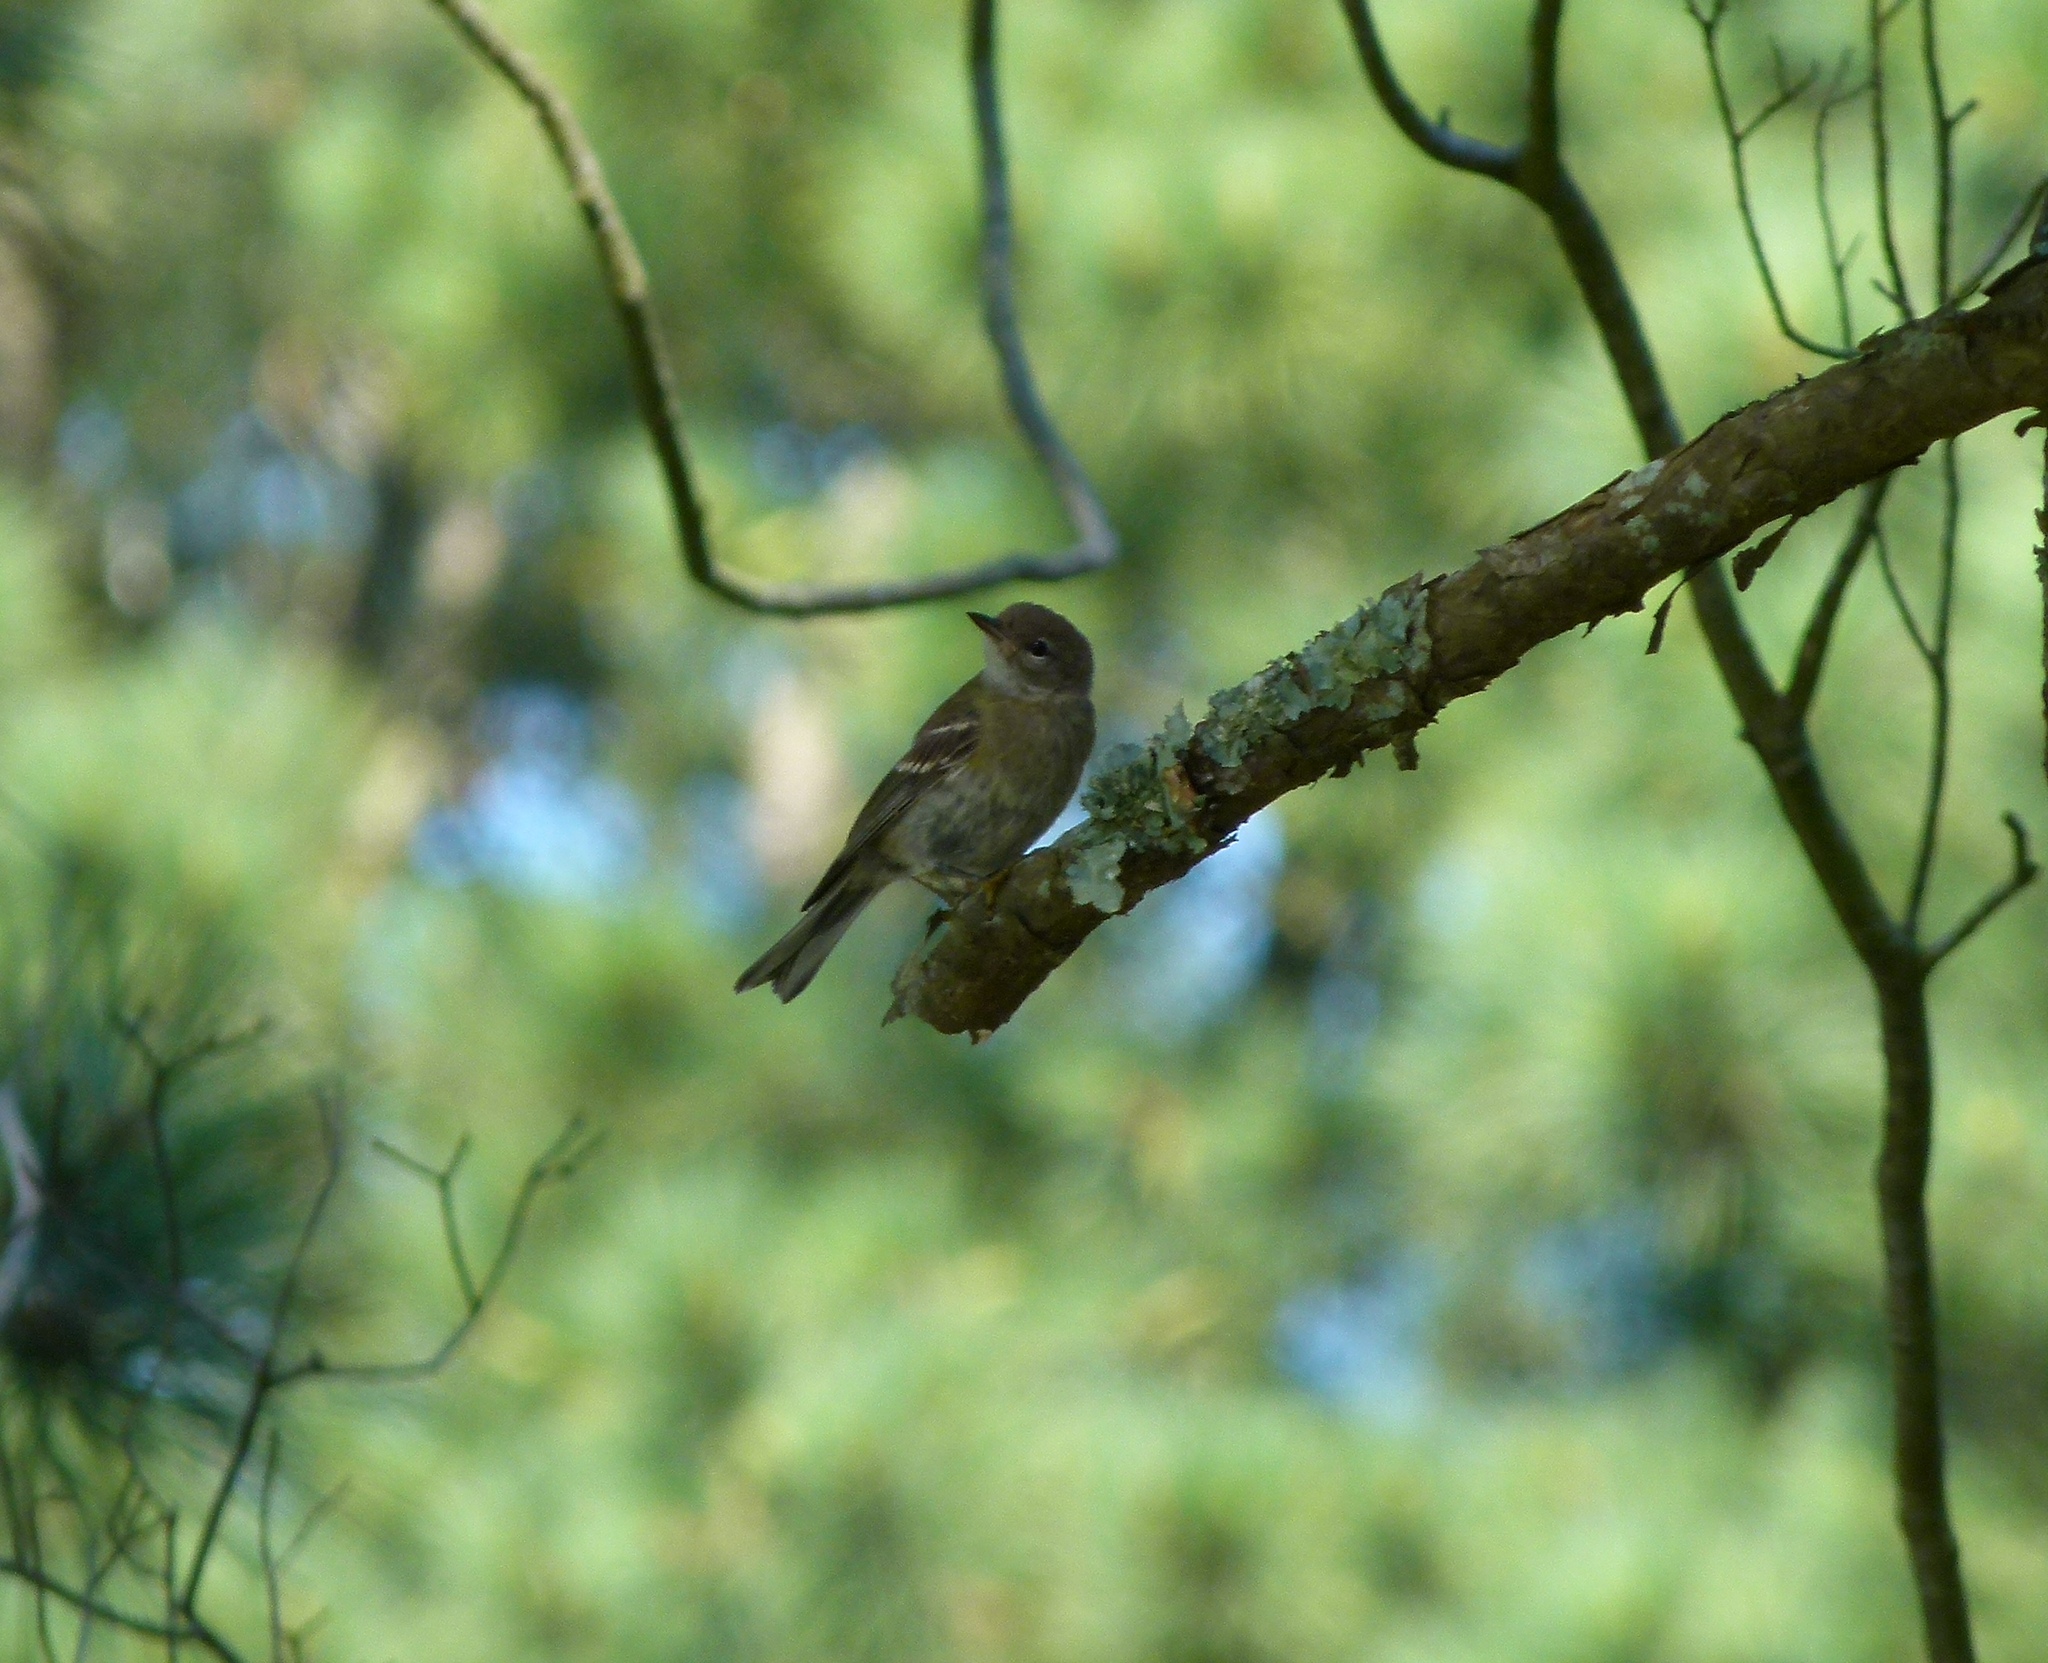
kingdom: Animalia
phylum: Chordata
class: Aves
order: Passeriformes
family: Parulidae
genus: Setophaga
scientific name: Setophaga pinus
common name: Pine warbler
